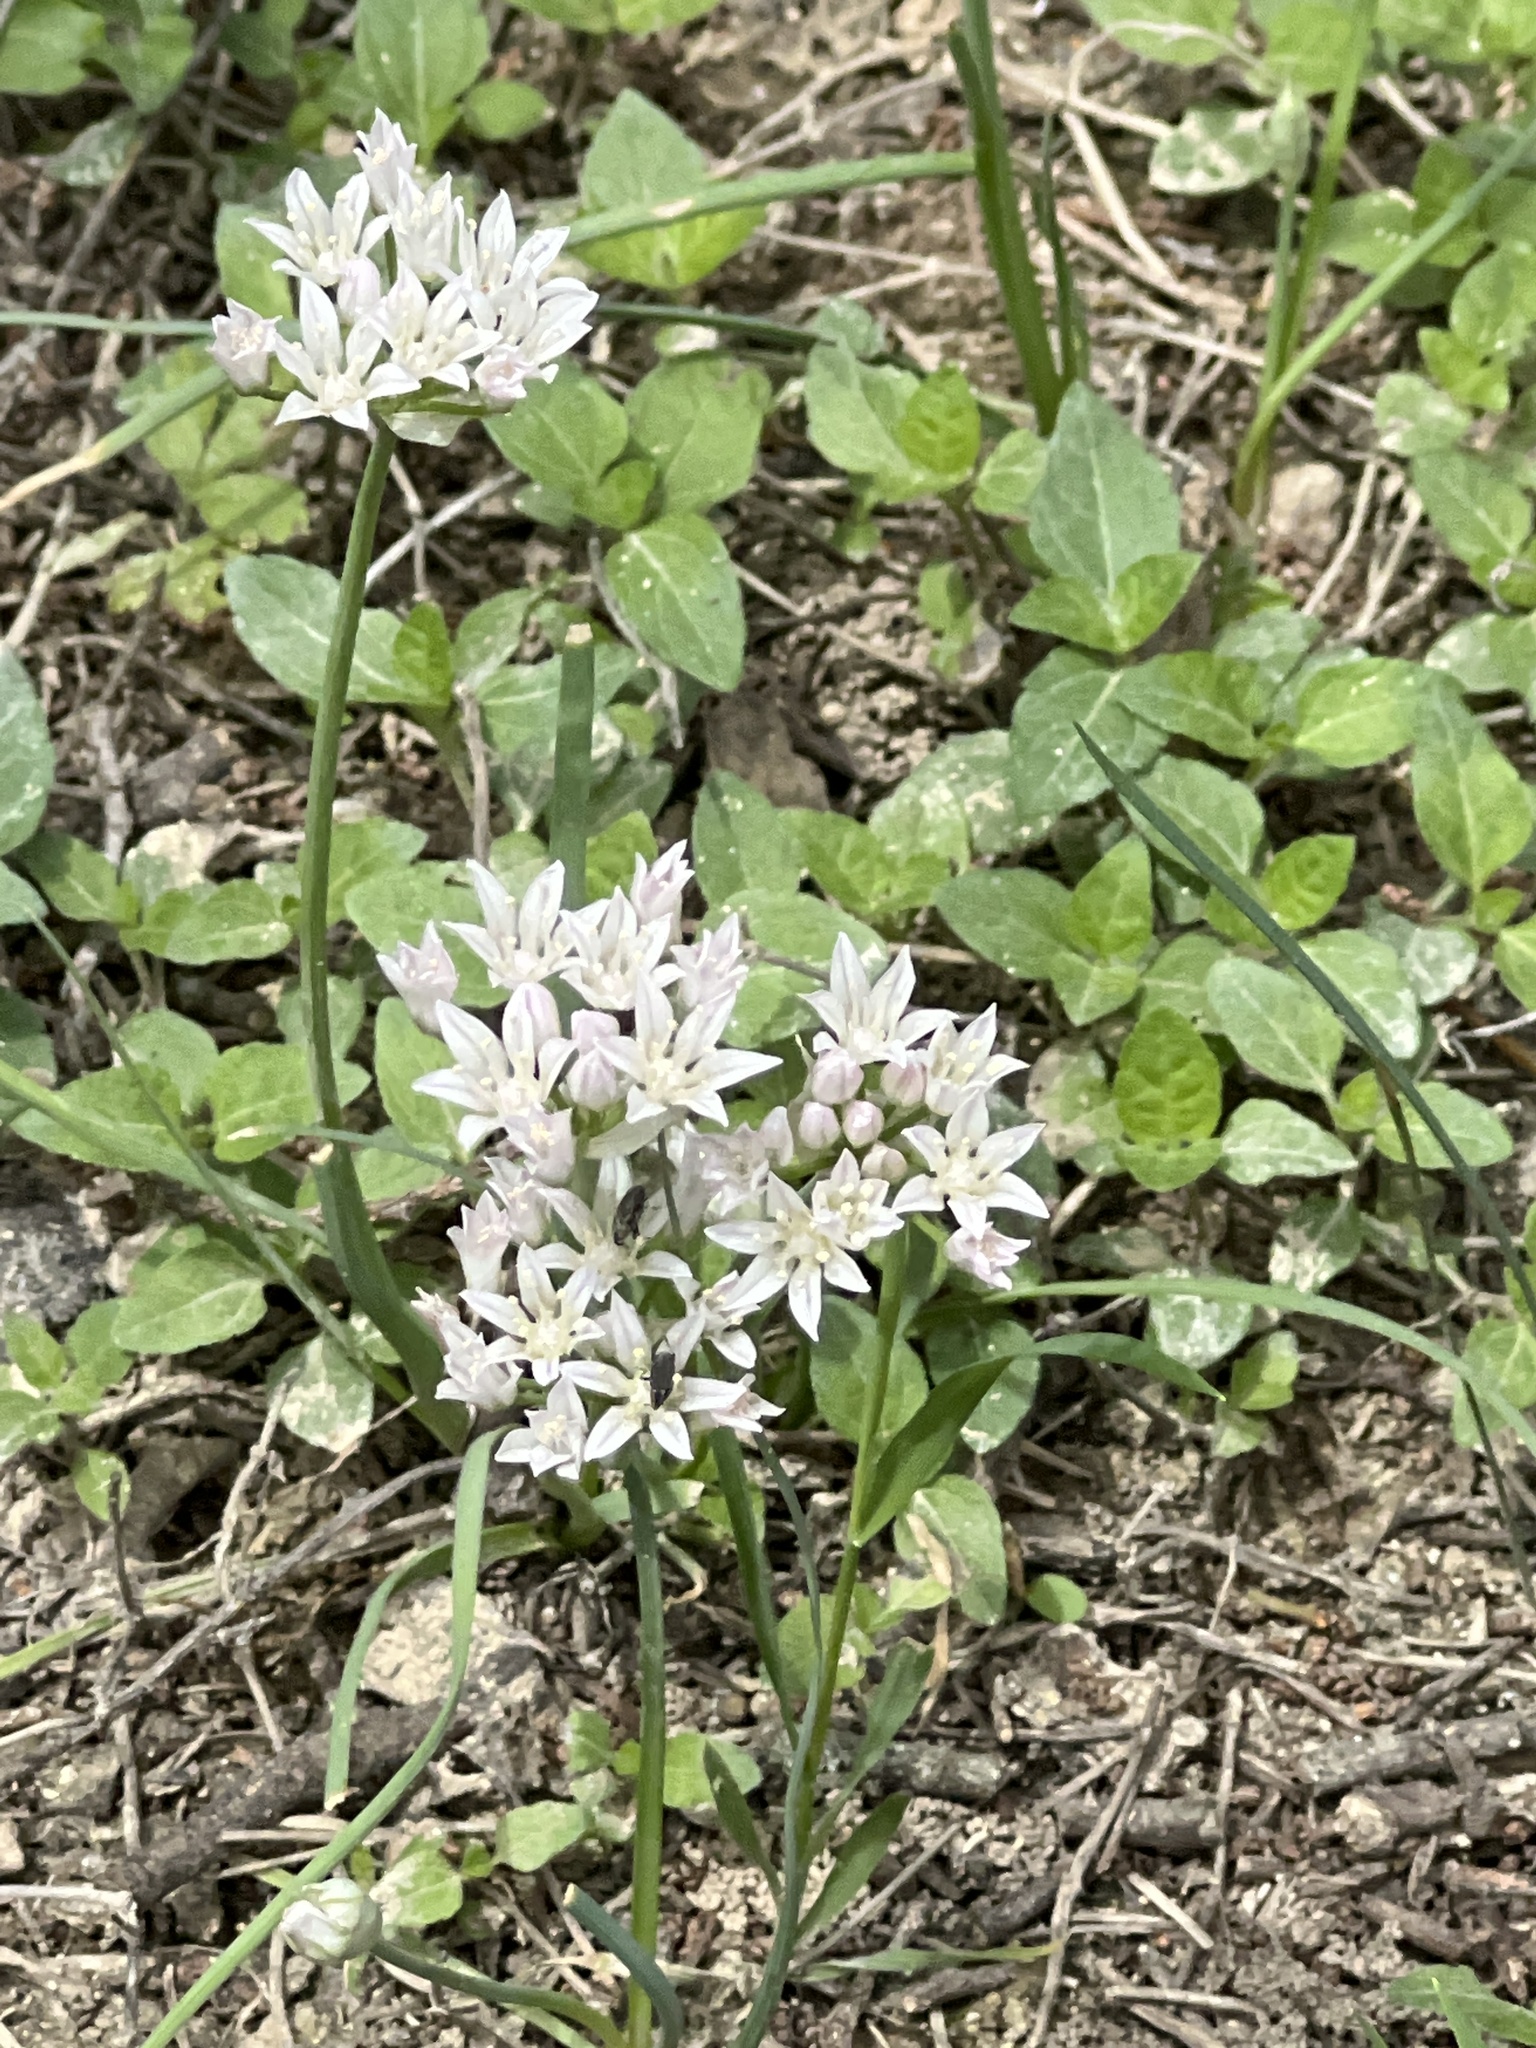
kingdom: Plantae
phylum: Tracheophyta
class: Liliopsida
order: Asparagales
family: Amaryllidaceae
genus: Allium
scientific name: Allium drummondii
